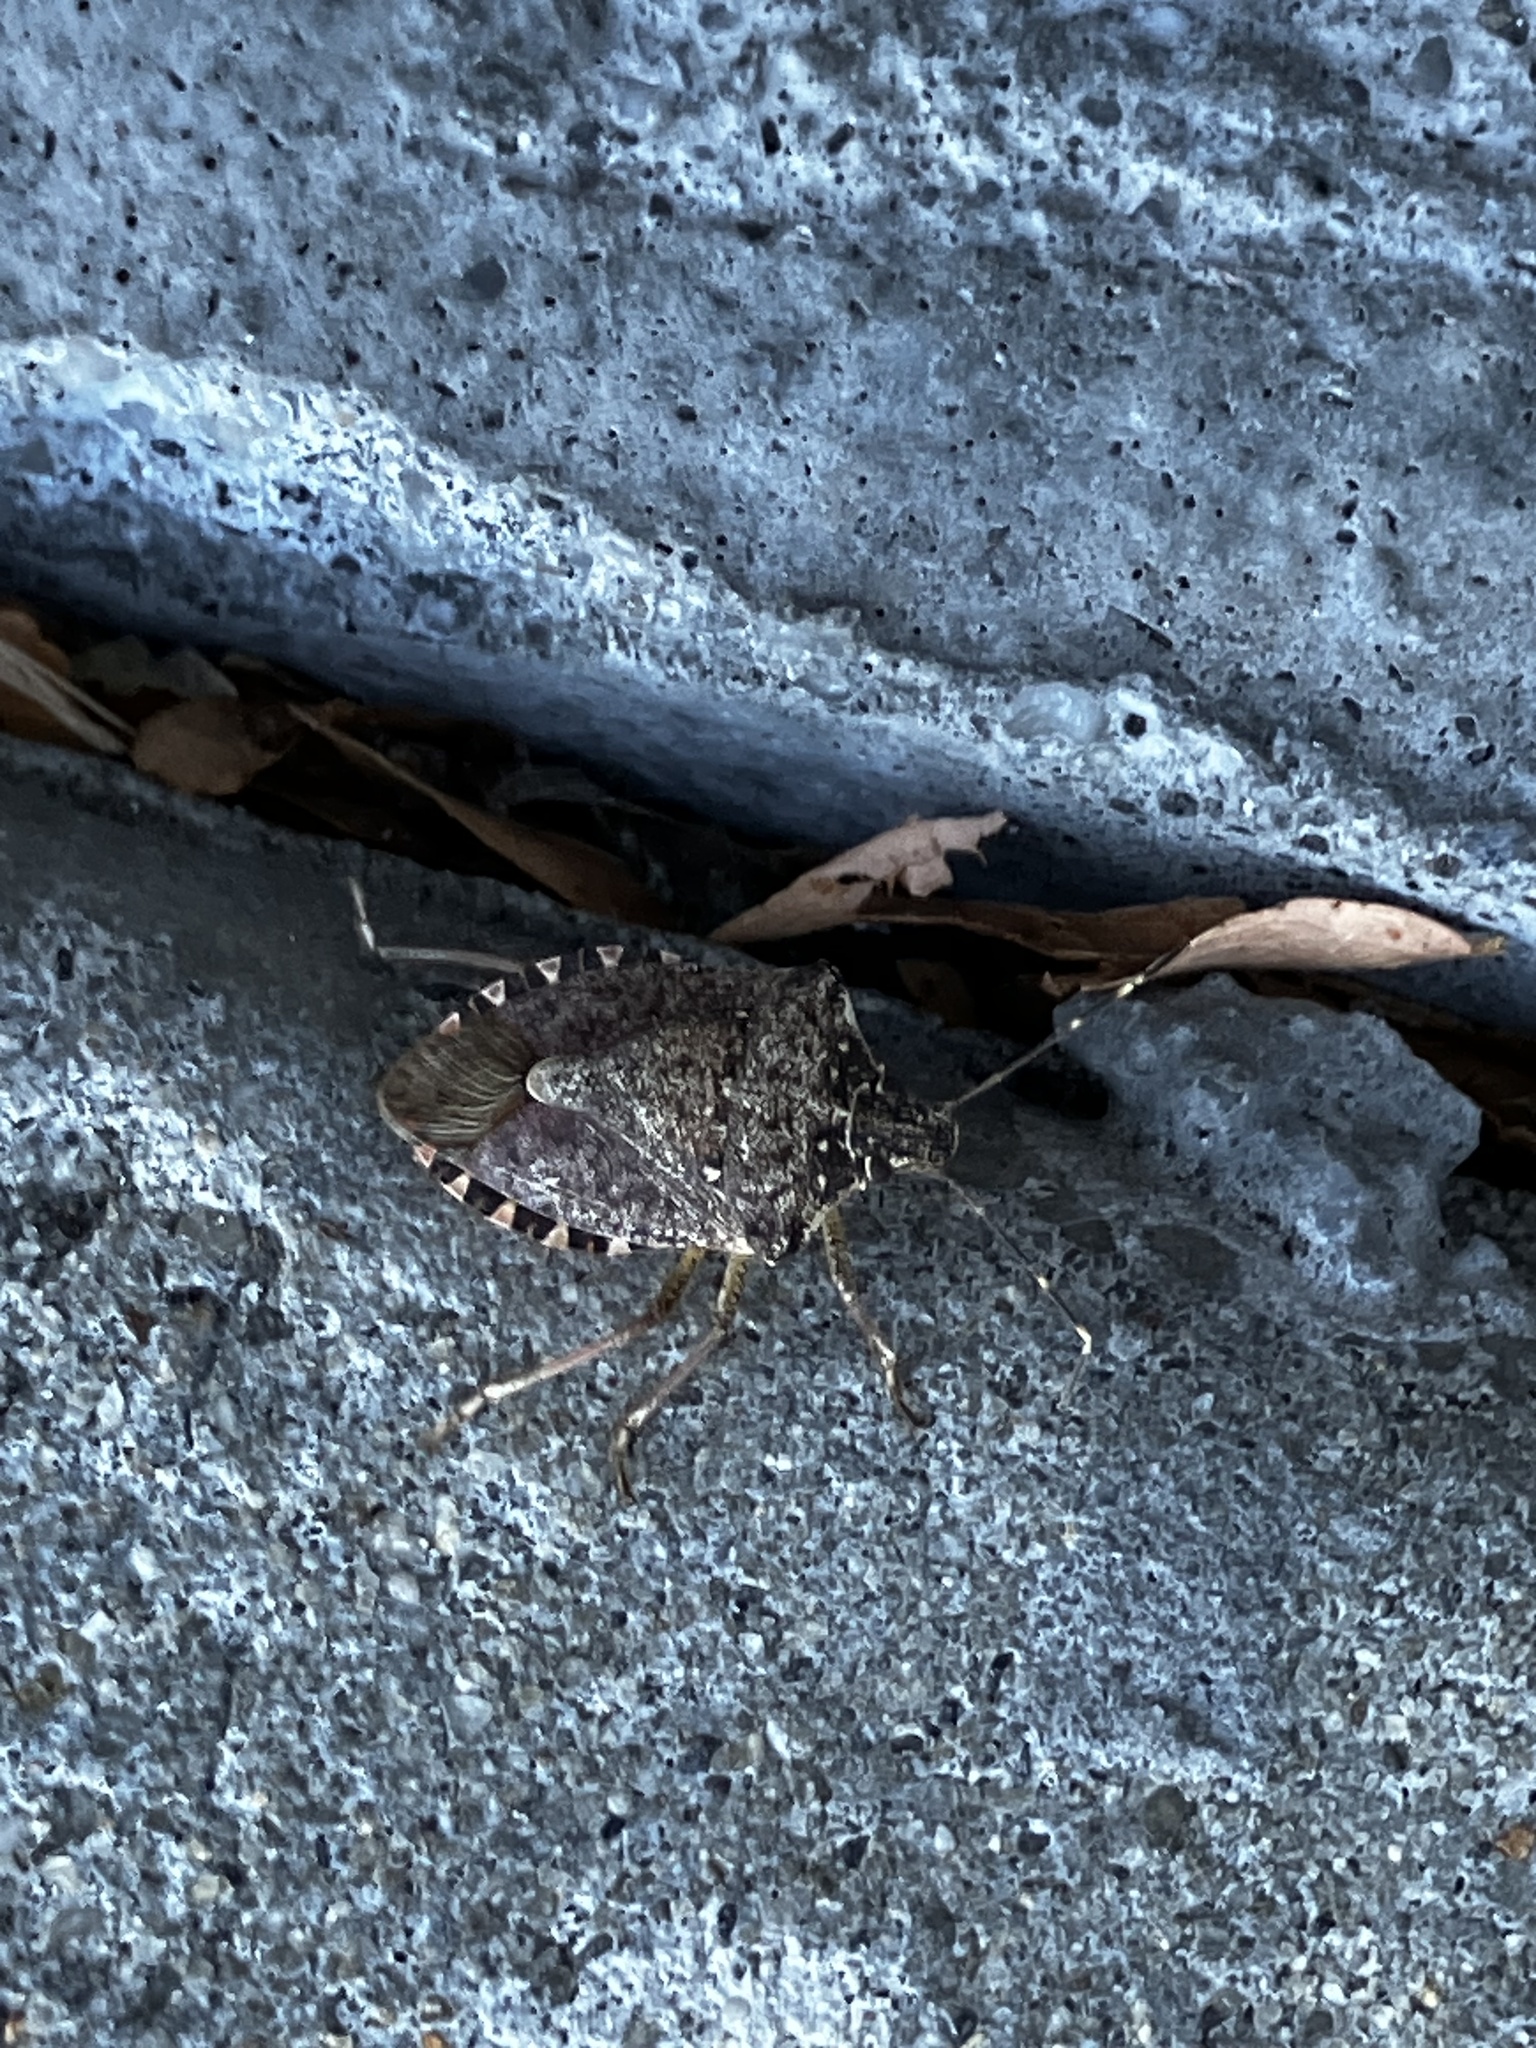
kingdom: Animalia
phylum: Arthropoda
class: Insecta
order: Hemiptera
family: Pentatomidae
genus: Halyomorpha
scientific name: Halyomorpha halys
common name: Brown marmorated stink bug
